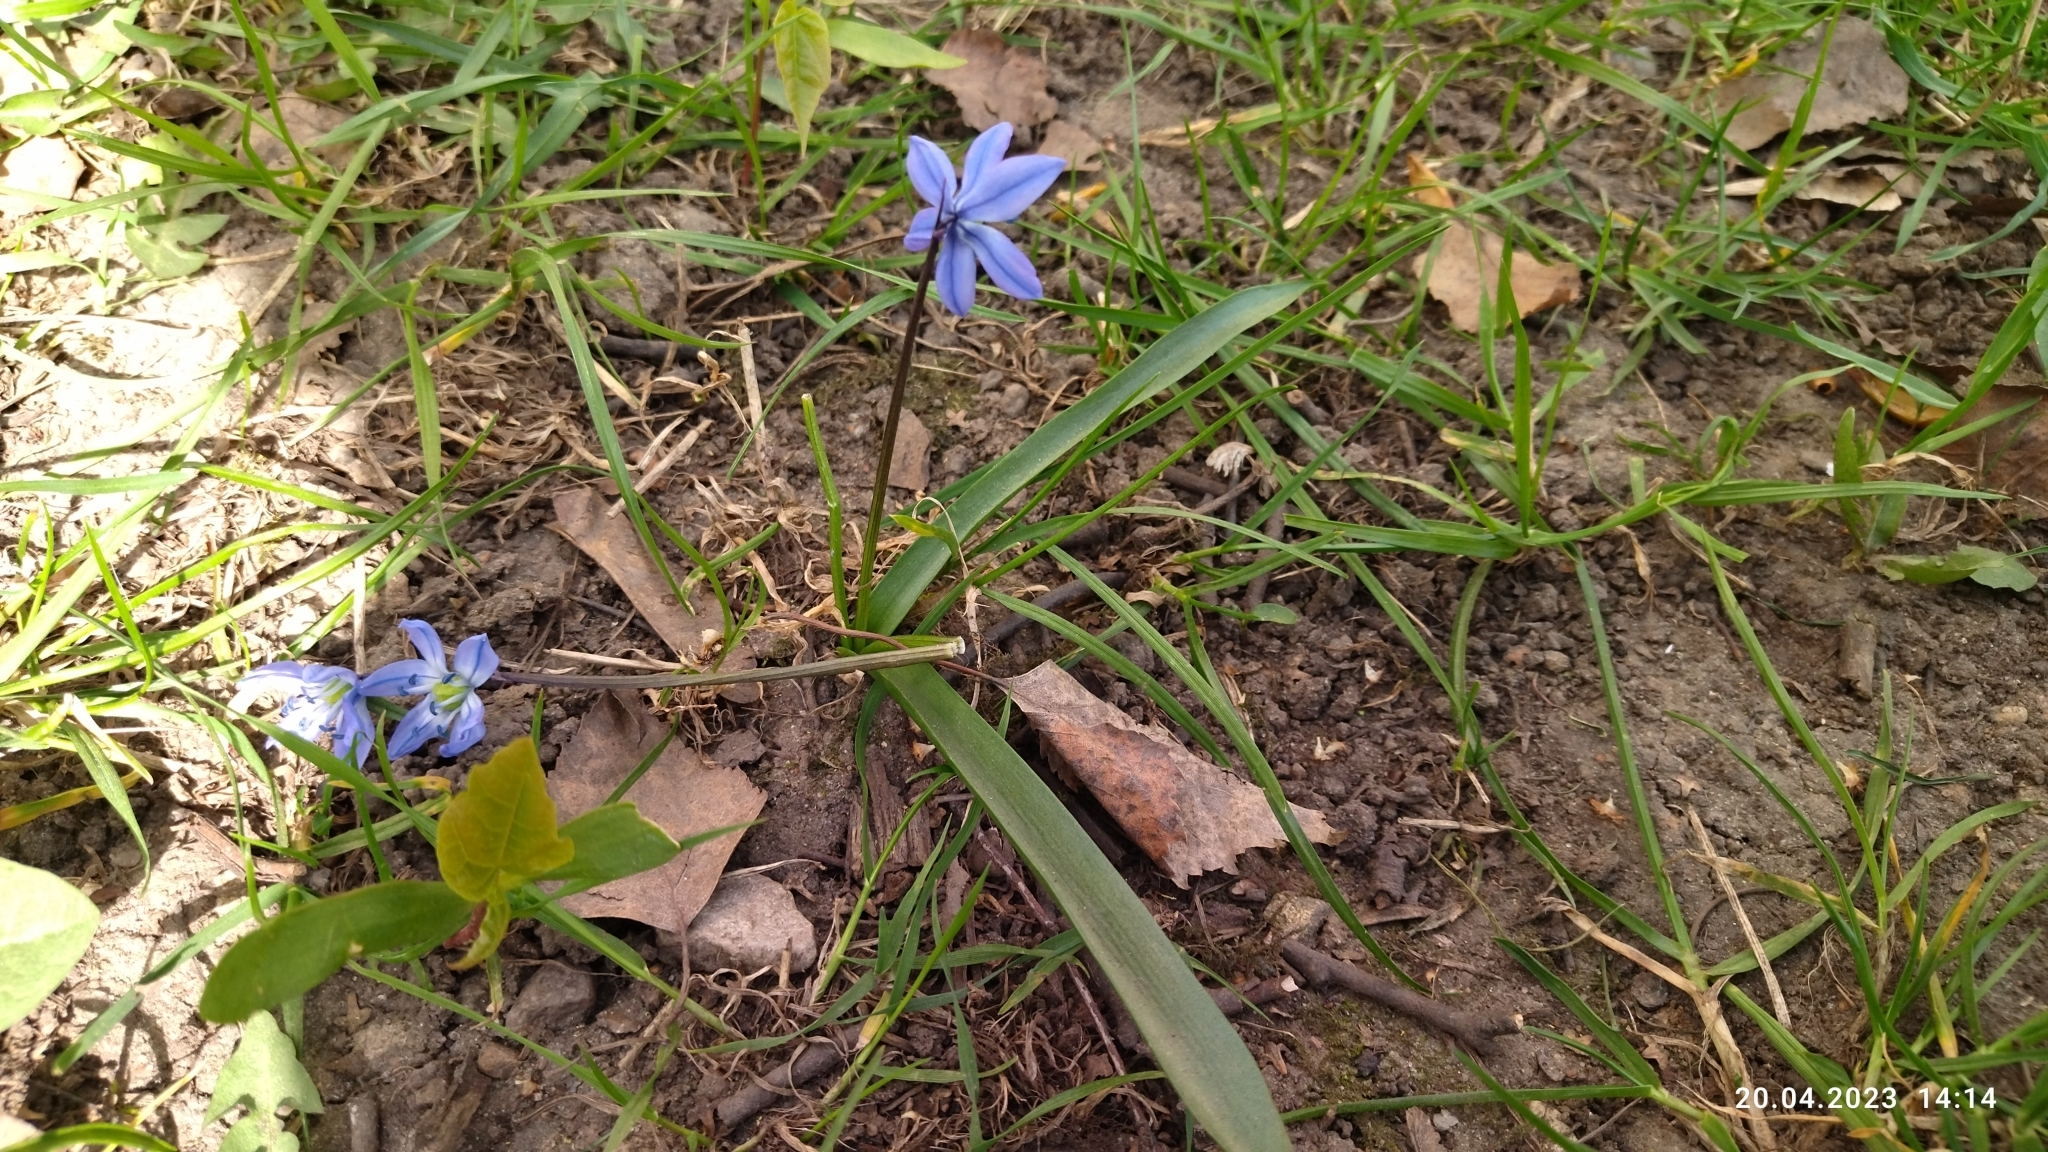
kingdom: Plantae
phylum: Tracheophyta
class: Liliopsida
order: Asparagales
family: Asparagaceae
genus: Scilla
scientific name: Scilla siberica
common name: Siberian squill
